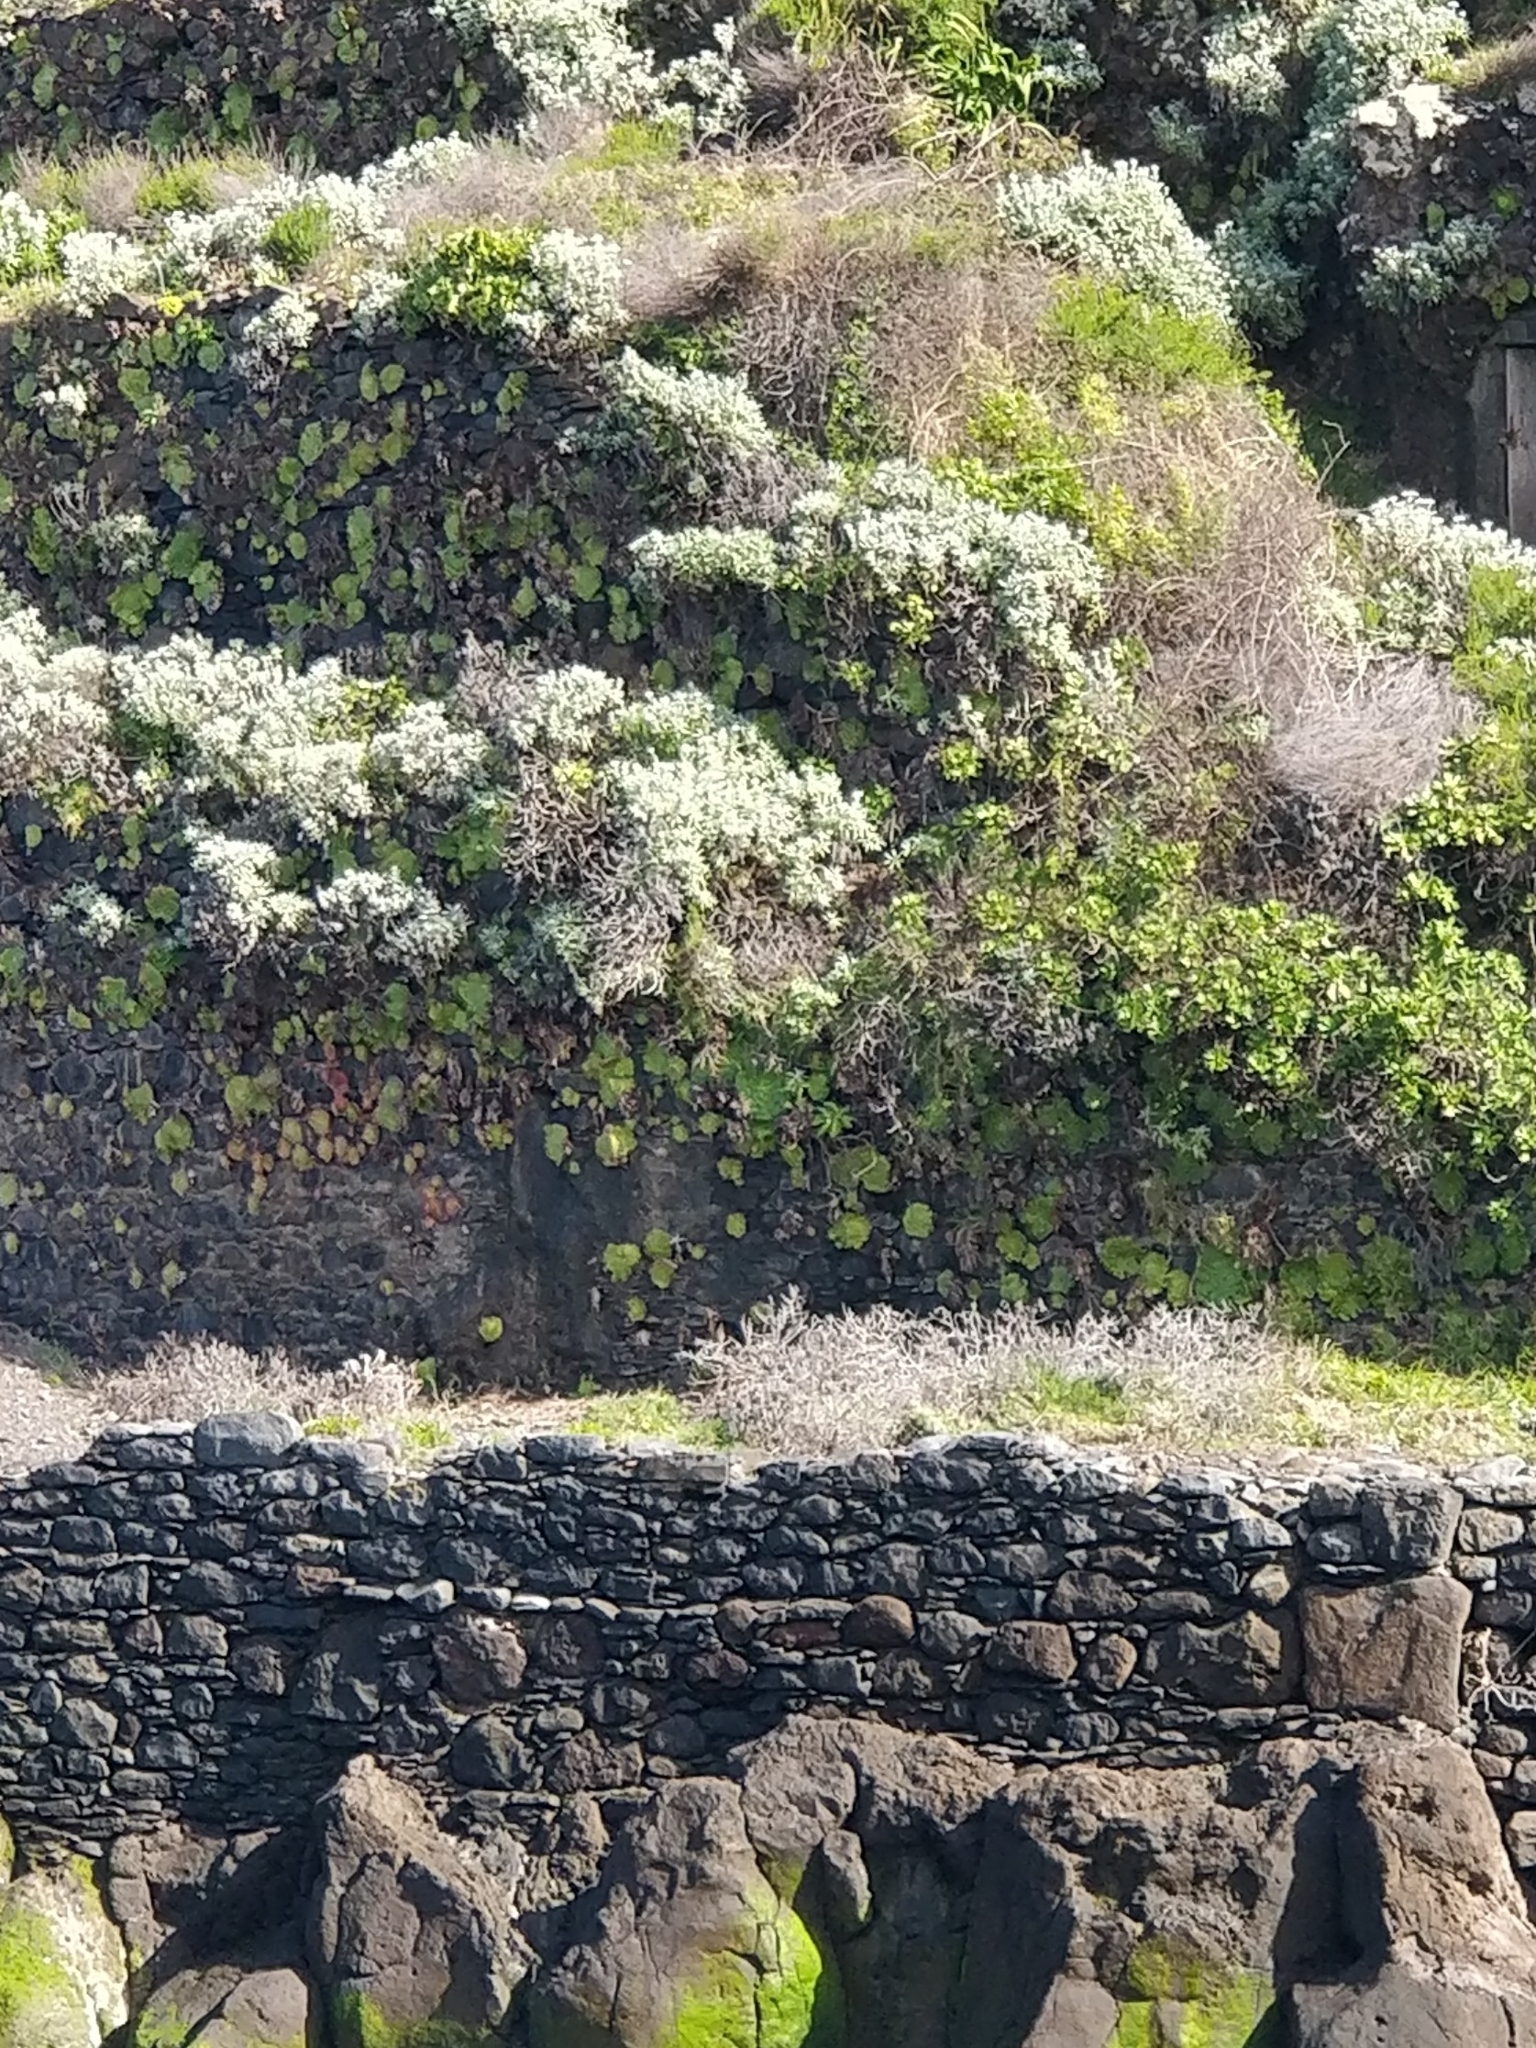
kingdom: Plantae
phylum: Tracheophyta
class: Magnoliopsida
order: Saxifragales
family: Crassulaceae
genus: Aeonium
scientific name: Aeonium glandulosum
